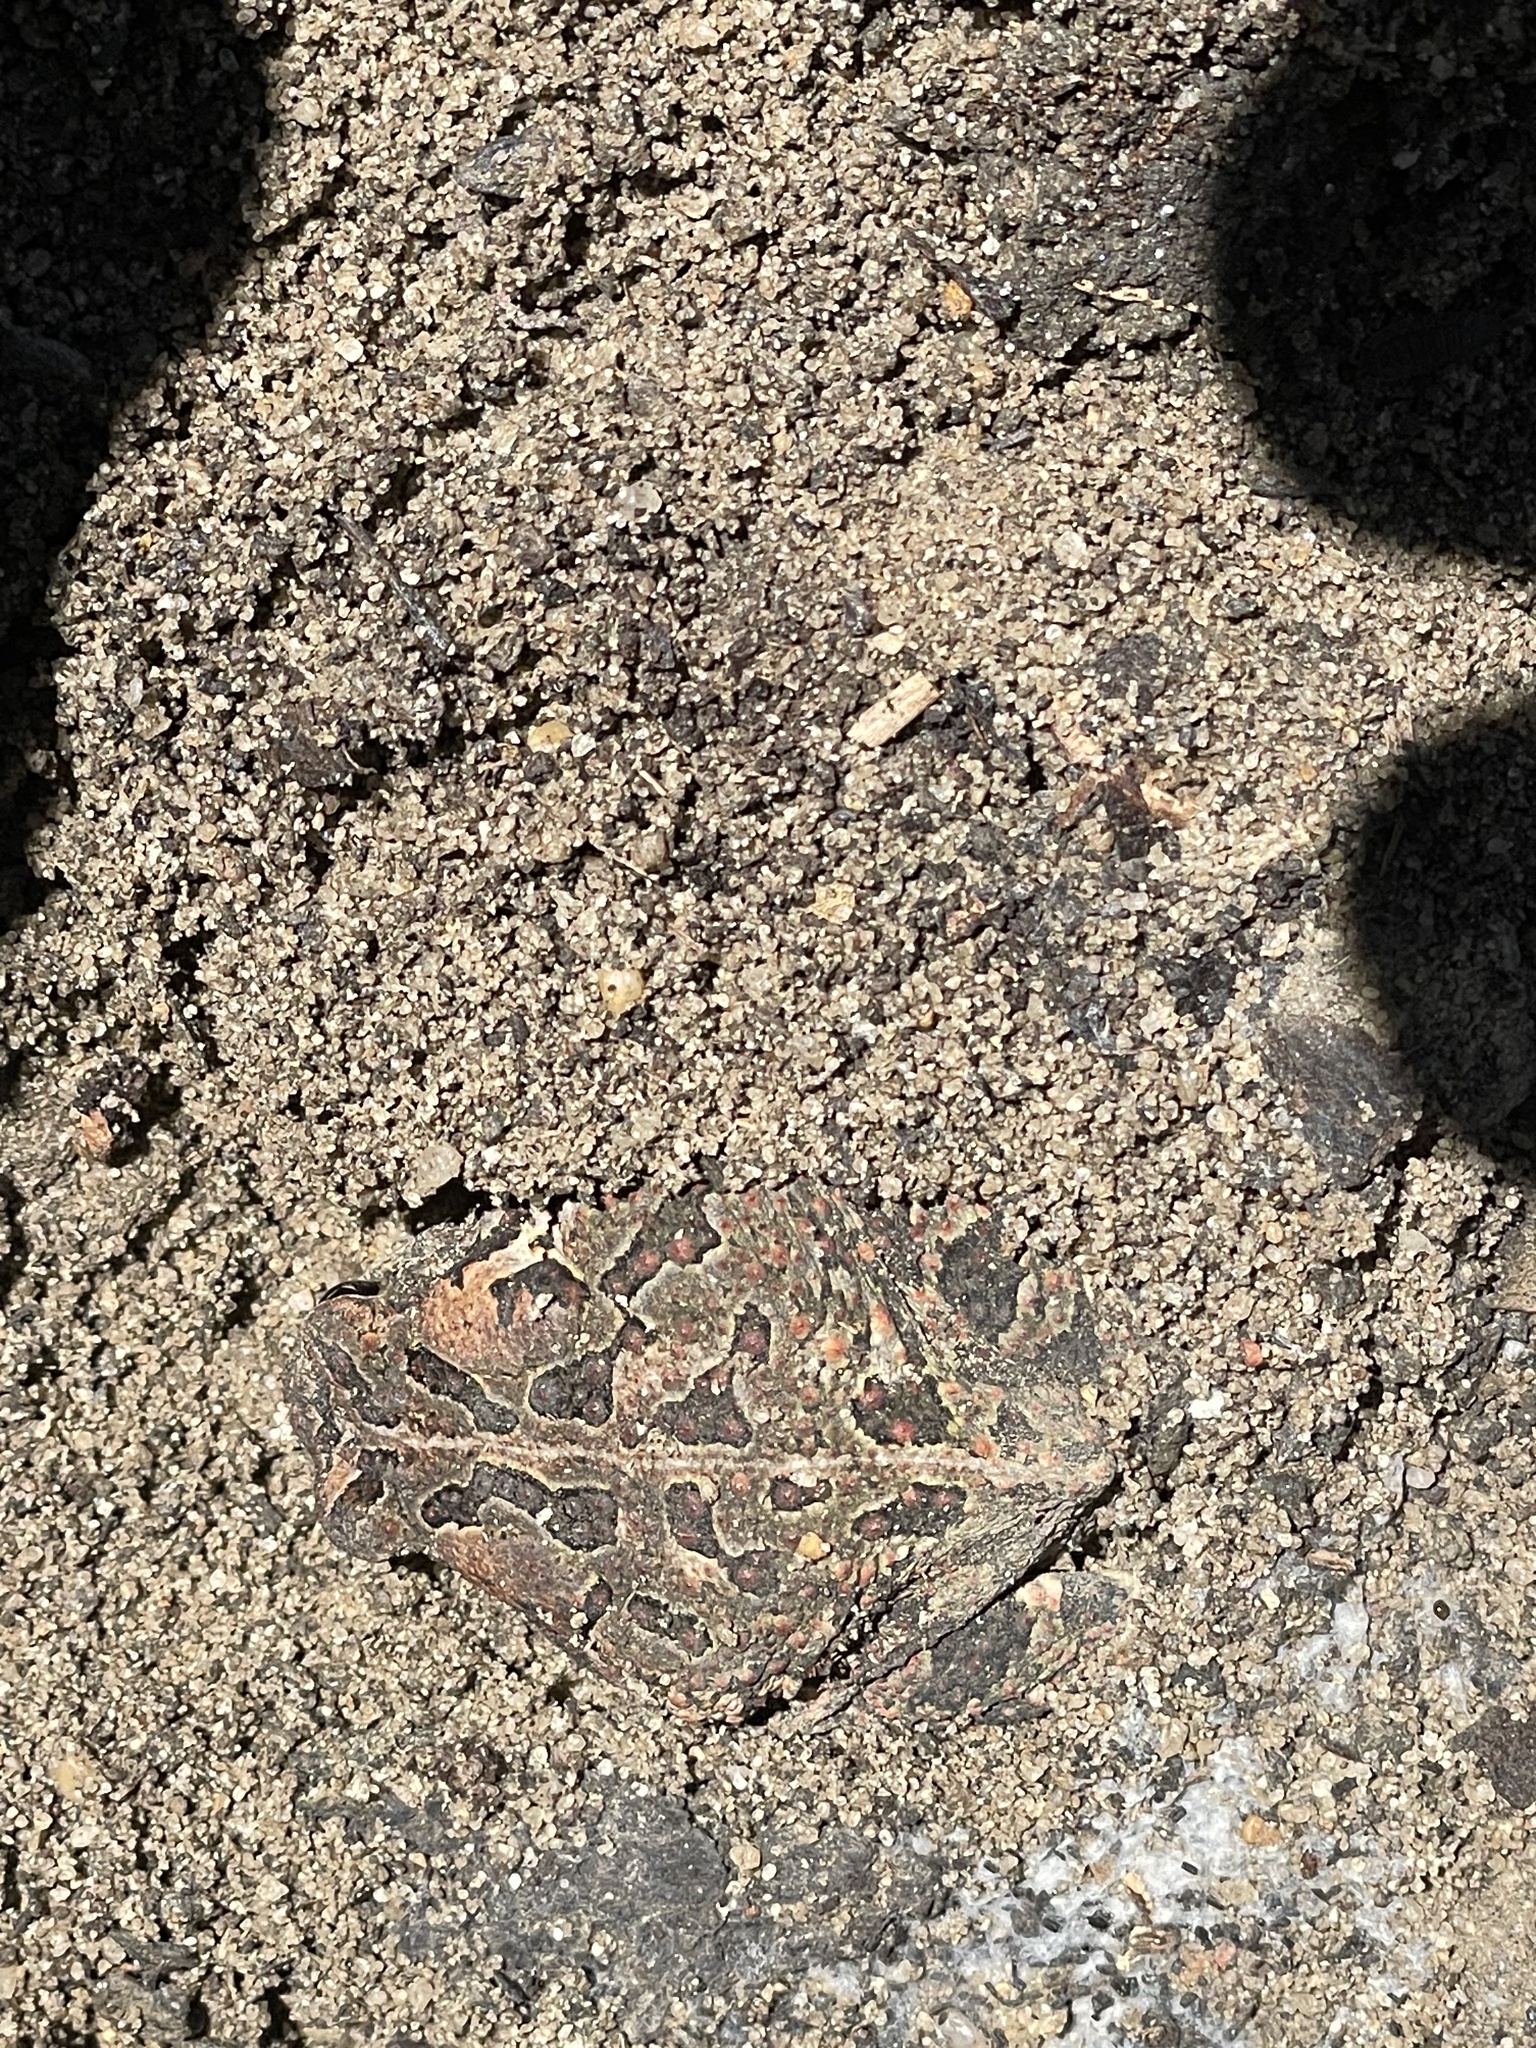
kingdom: Animalia
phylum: Chordata
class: Amphibia
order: Anura
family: Bufonidae
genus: Anaxyrus
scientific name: Anaxyrus fowleri
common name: Fowler's toad
